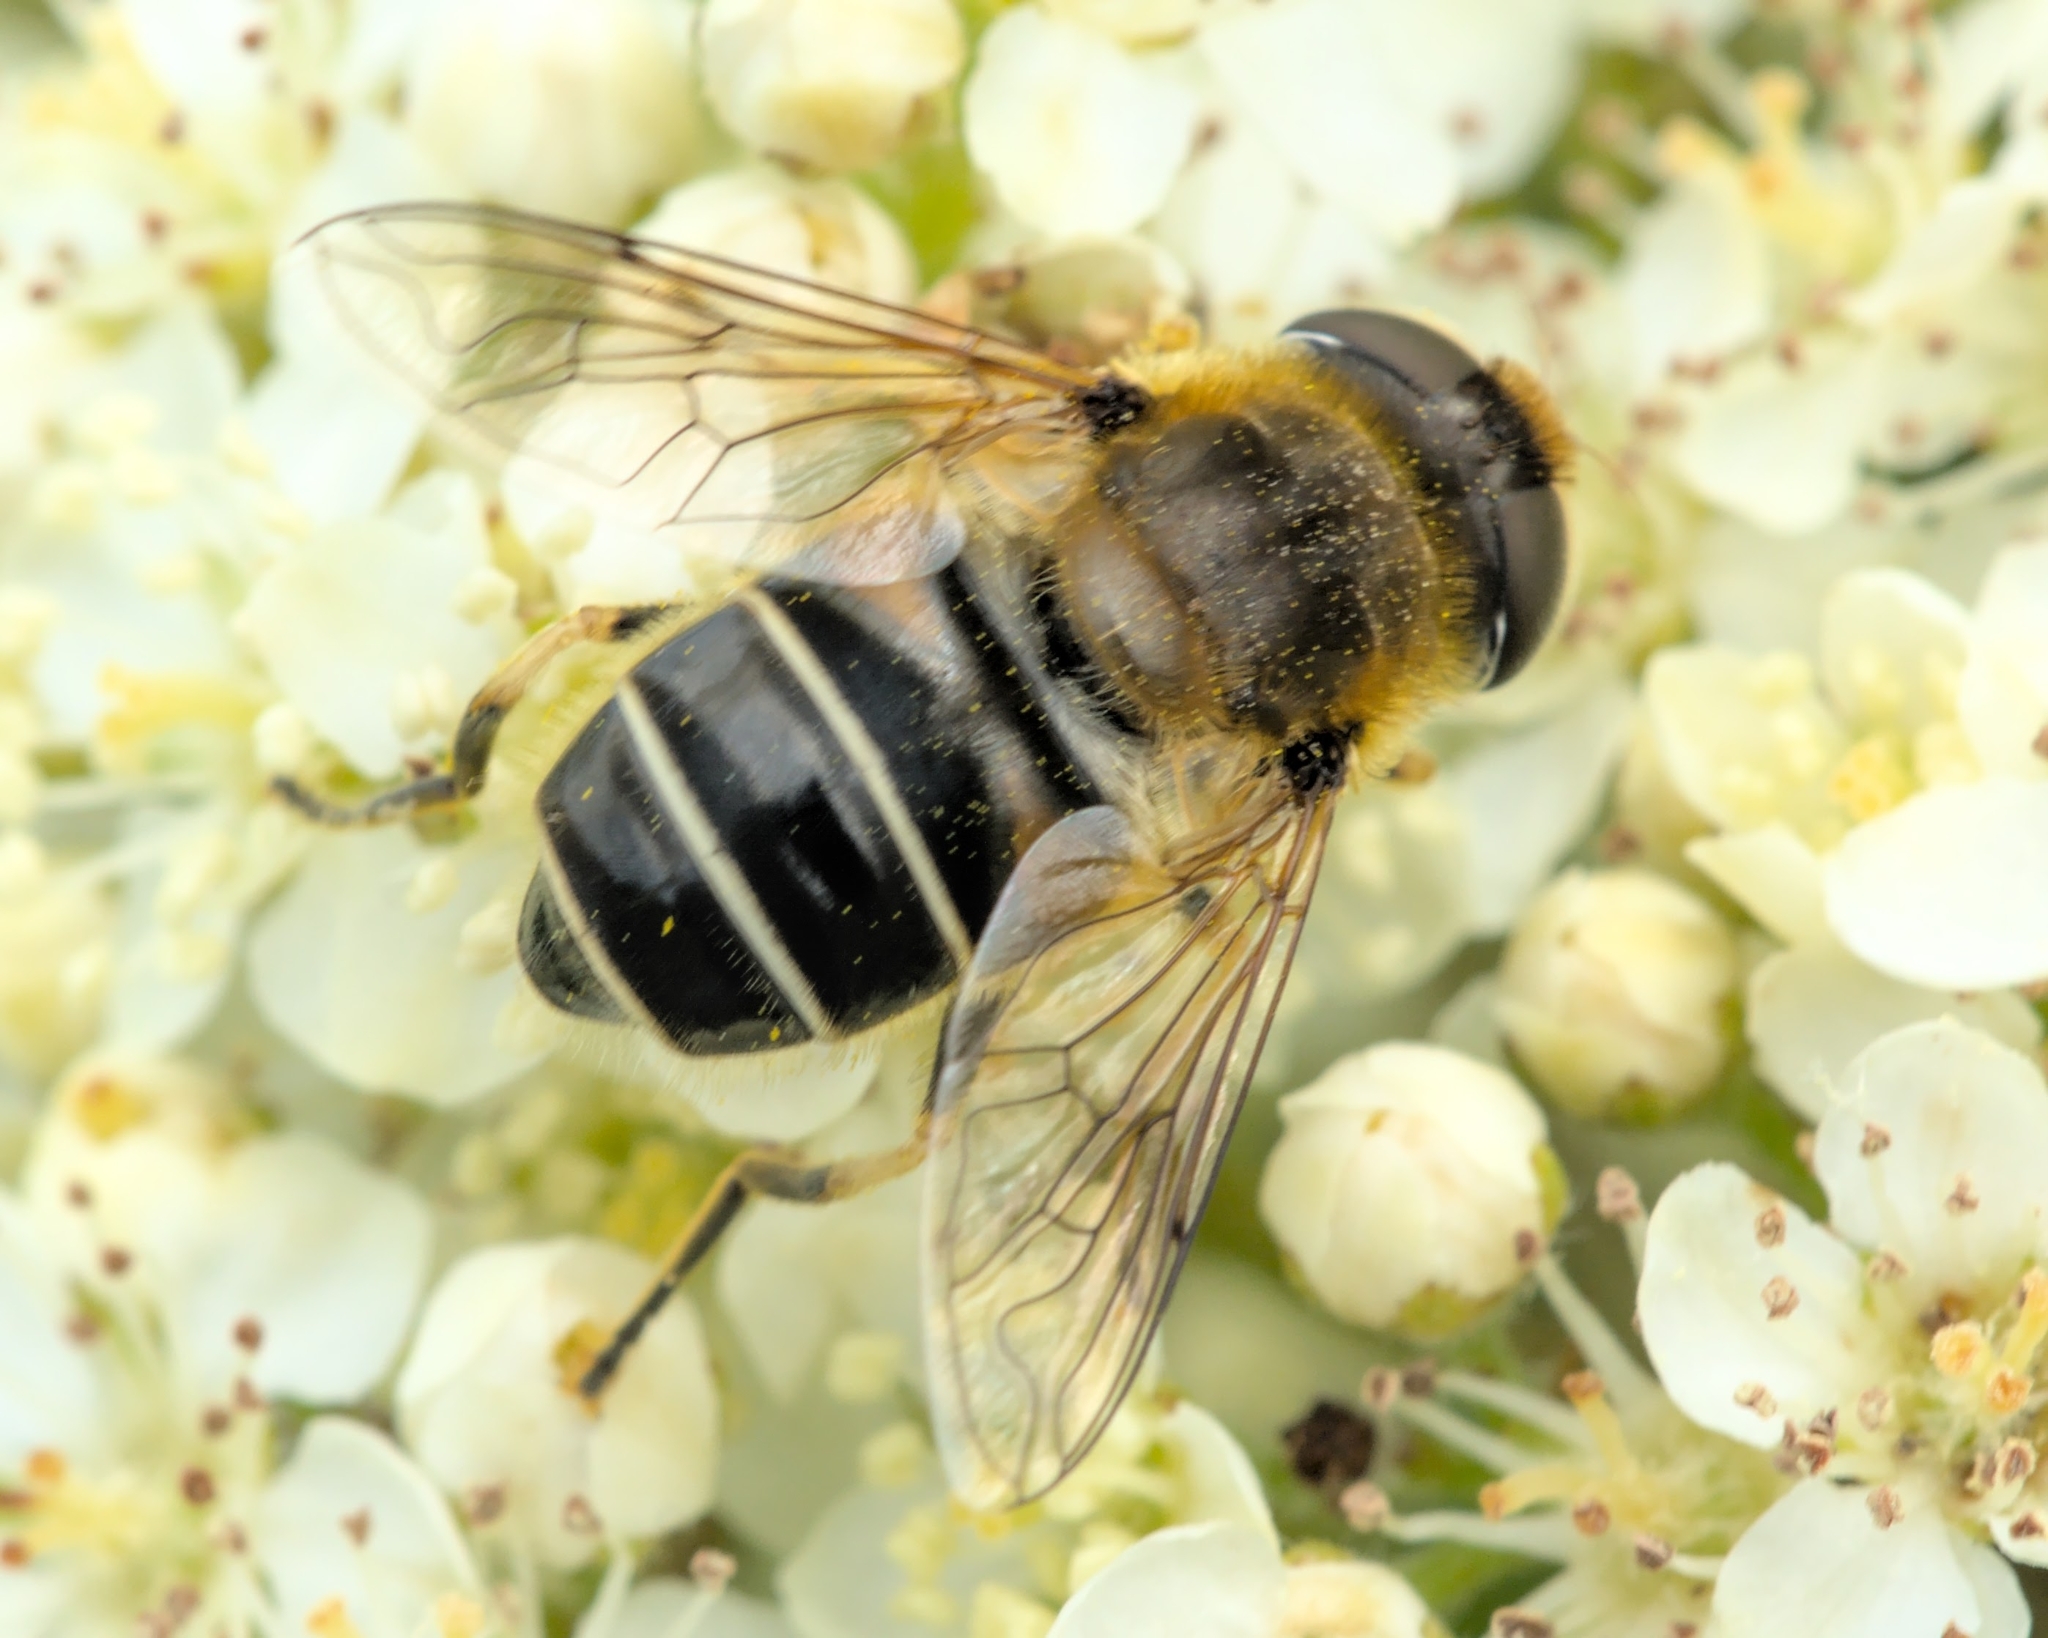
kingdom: Animalia
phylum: Arthropoda
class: Insecta
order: Diptera
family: Syrphidae
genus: Eristalis
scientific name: Eristalis nemorum
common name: Orange-spined drone fly
